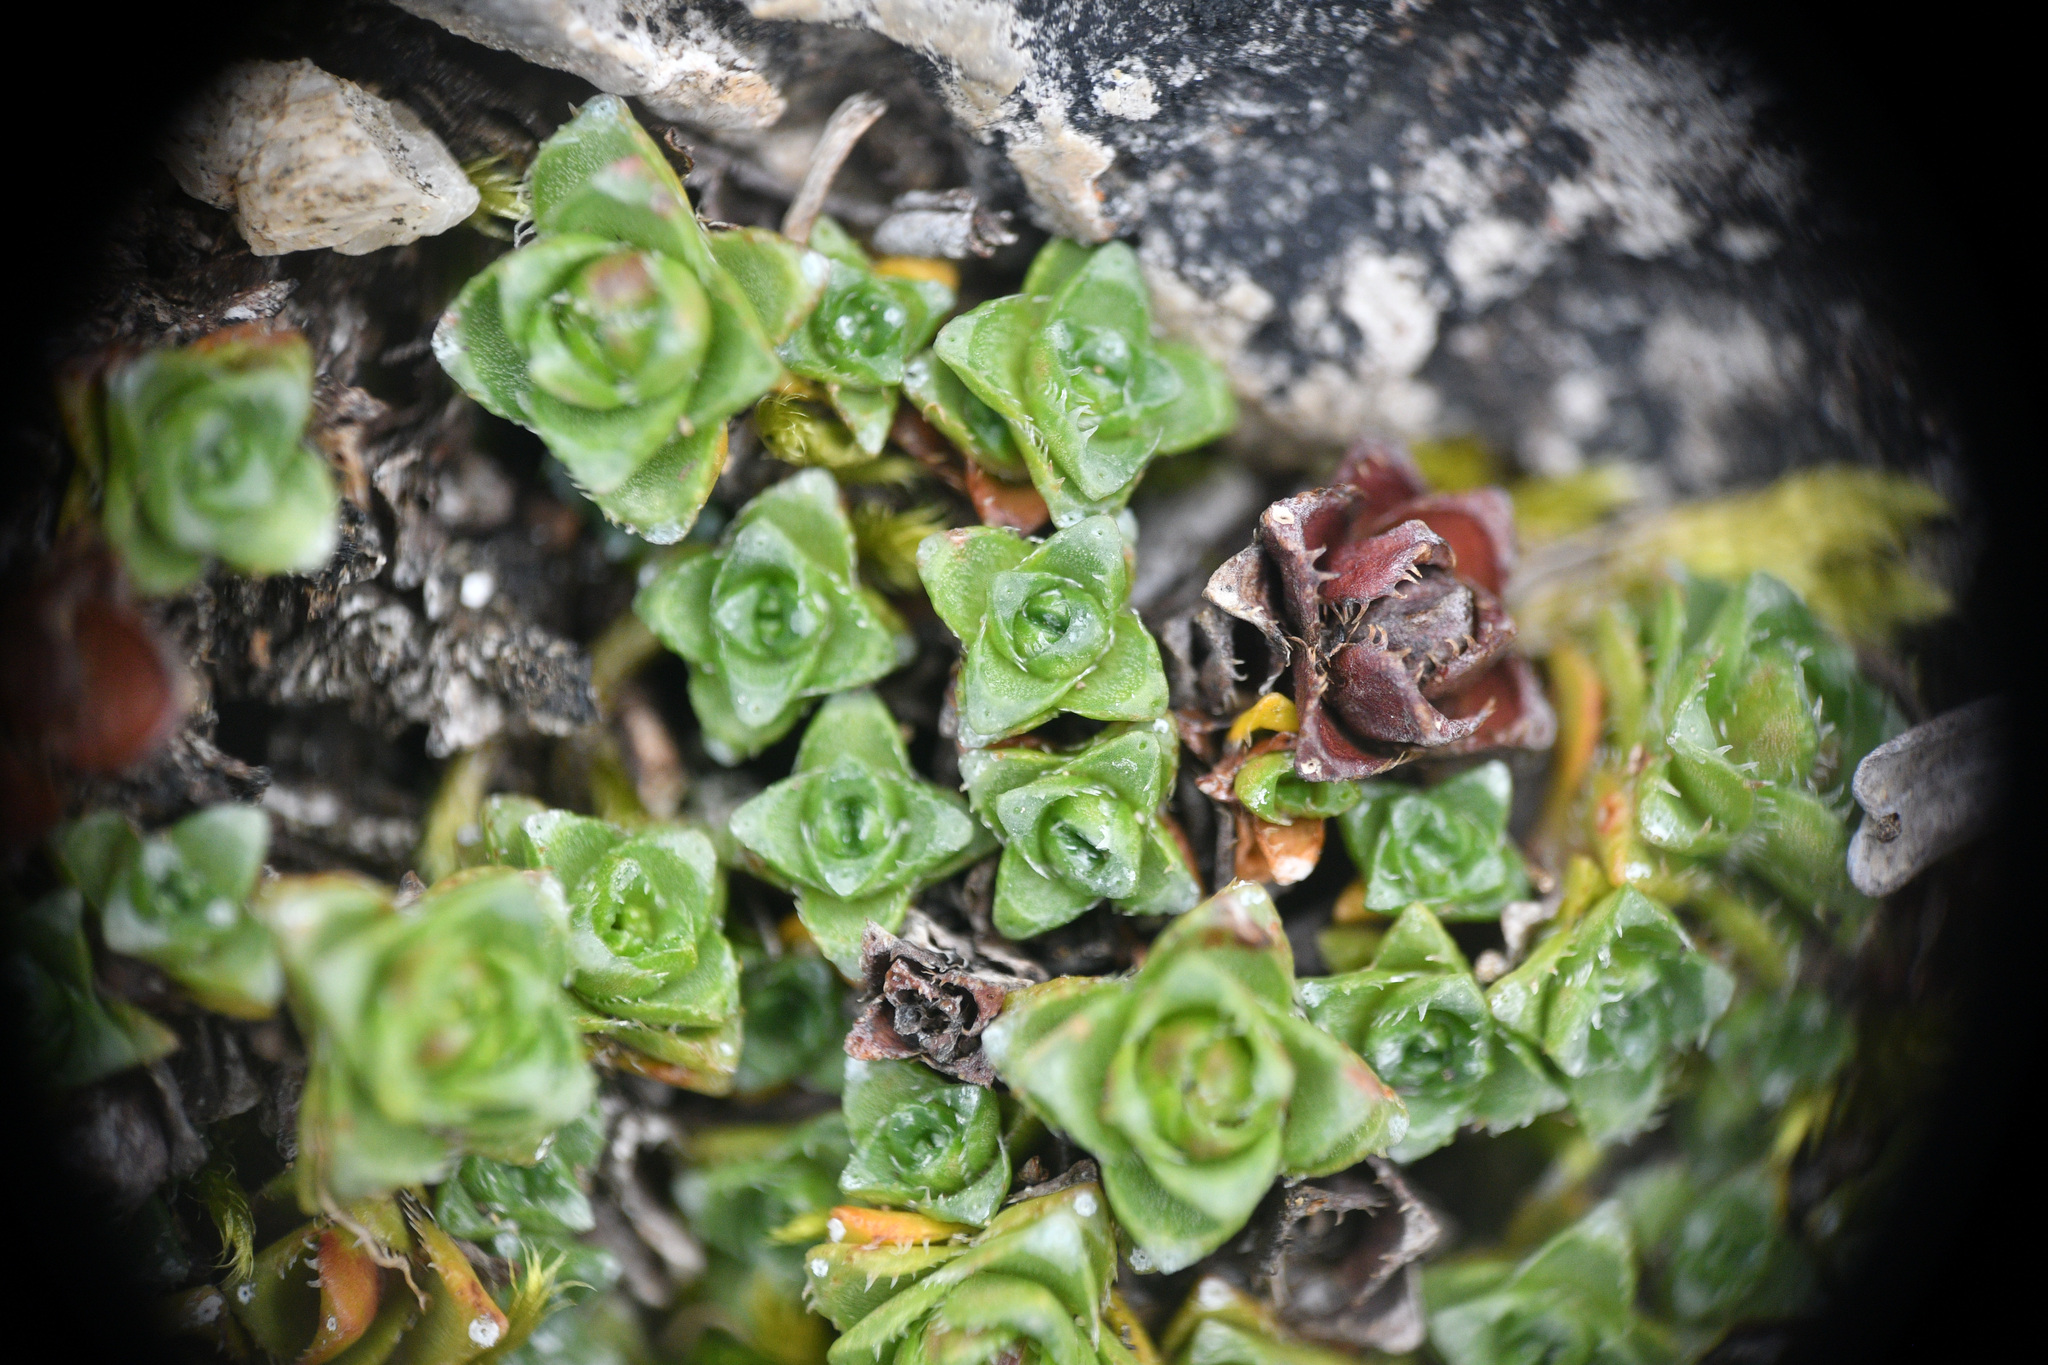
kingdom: Plantae
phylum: Tracheophyta
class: Magnoliopsida
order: Saxifragales
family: Saxifragaceae
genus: Saxifraga
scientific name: Saxifraga oppositifolia
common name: Purple saxifrage
